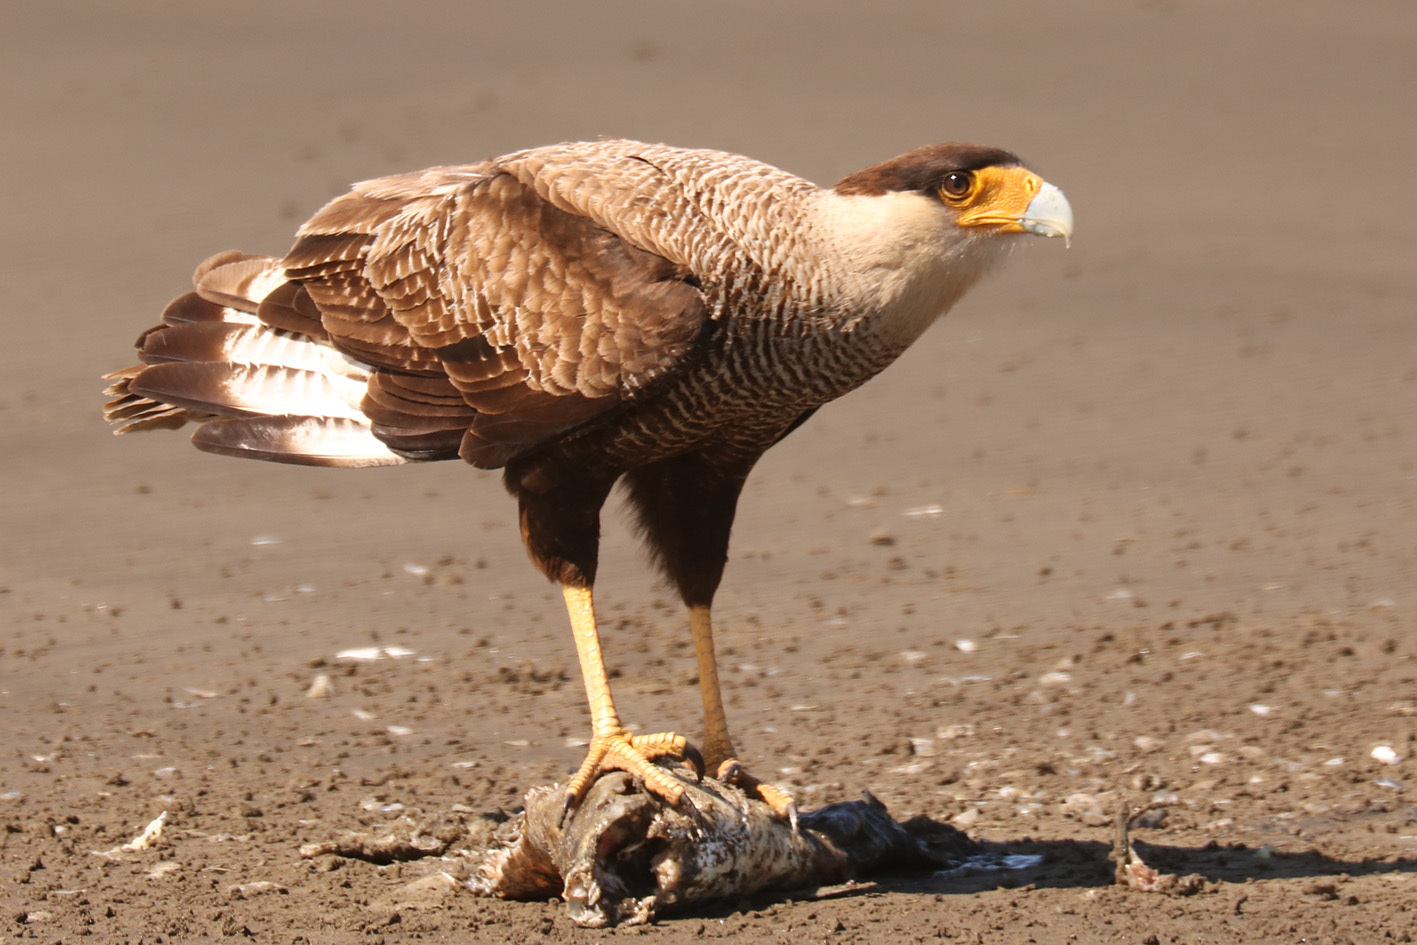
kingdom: Animalia
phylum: Chordata
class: Aves
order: Falconiformes
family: Falconidae
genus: Caracara
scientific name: Caracara plancus
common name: Southern caracara
